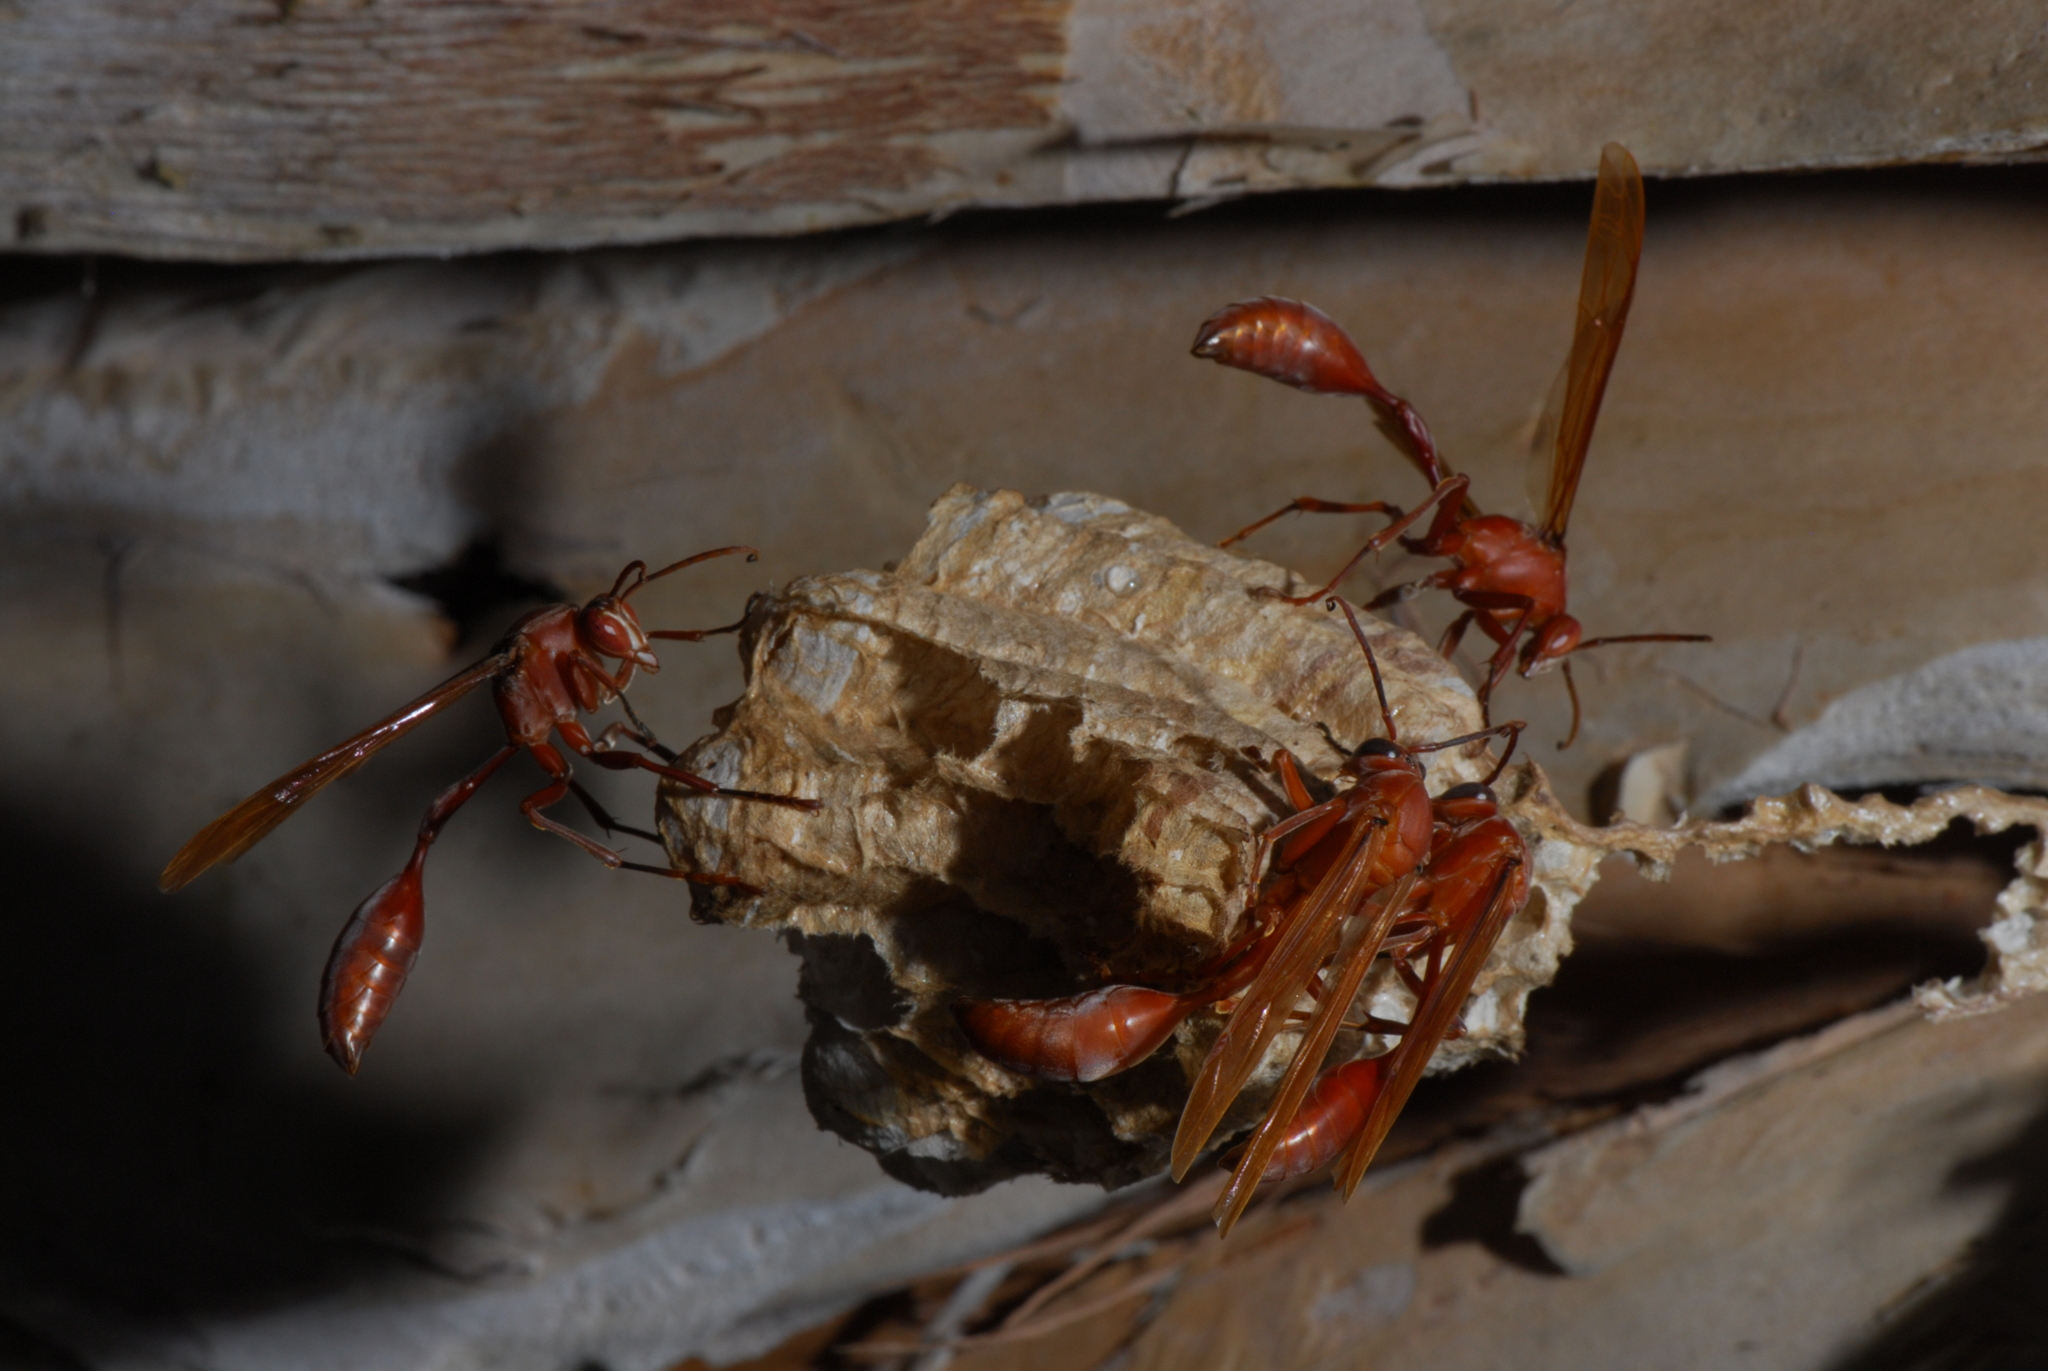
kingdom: Animalia
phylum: Arthropoda
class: Insecta
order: Hymenoptera
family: Eumenidae
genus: Belonogaster
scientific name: Belonogaster guerini
